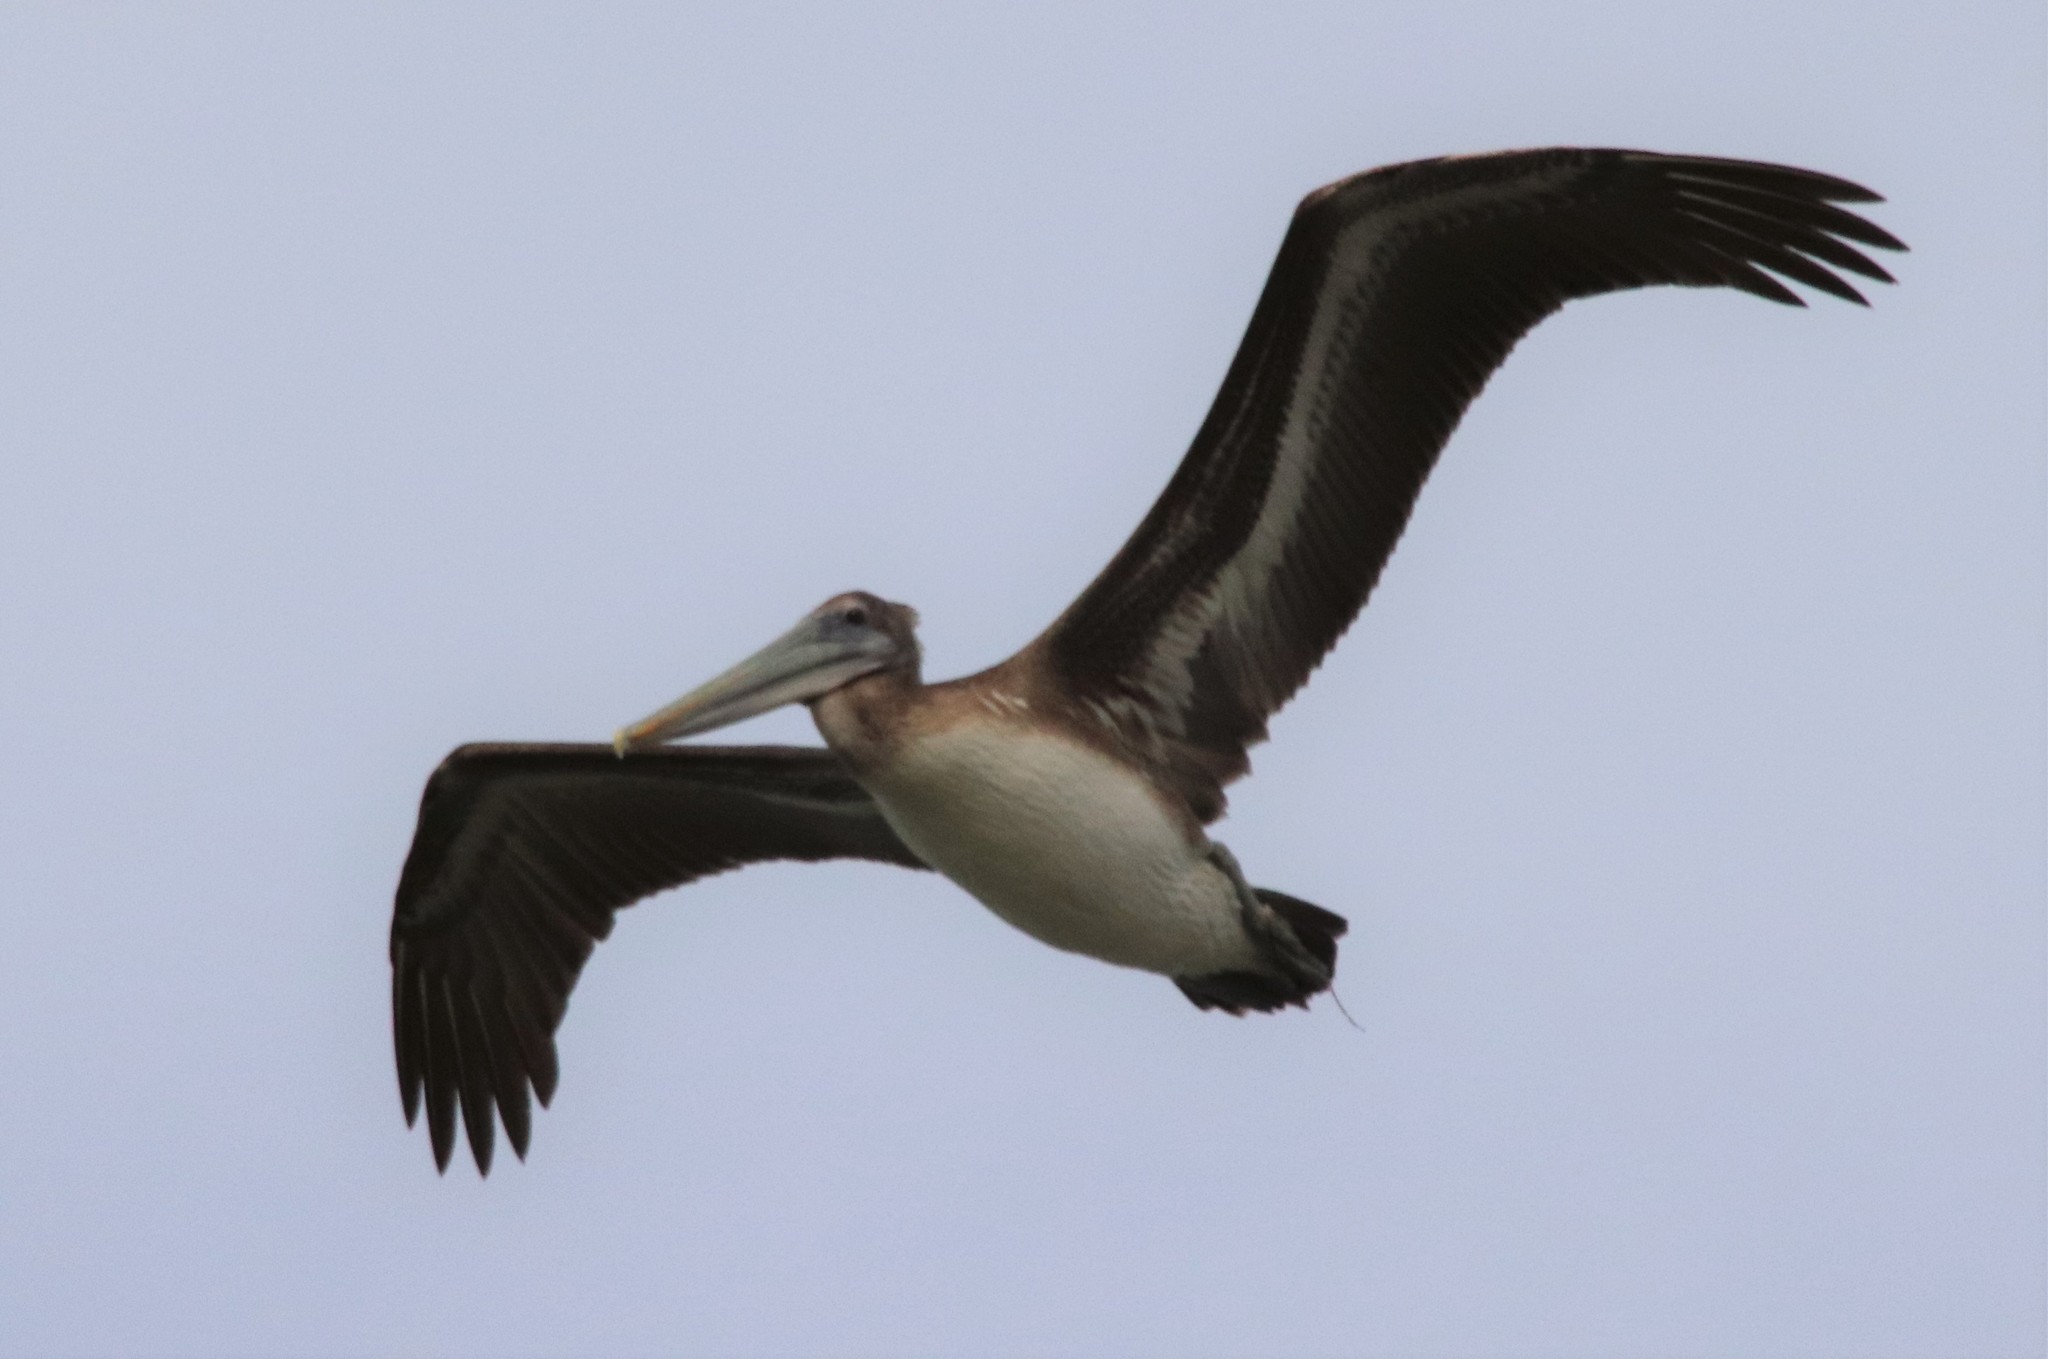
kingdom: Animalia
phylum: Chordata
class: Aves
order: Pelecaniformes
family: Pelecanidae
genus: Pelecanus
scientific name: Pelecanus occidentalis
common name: Brown pelican
